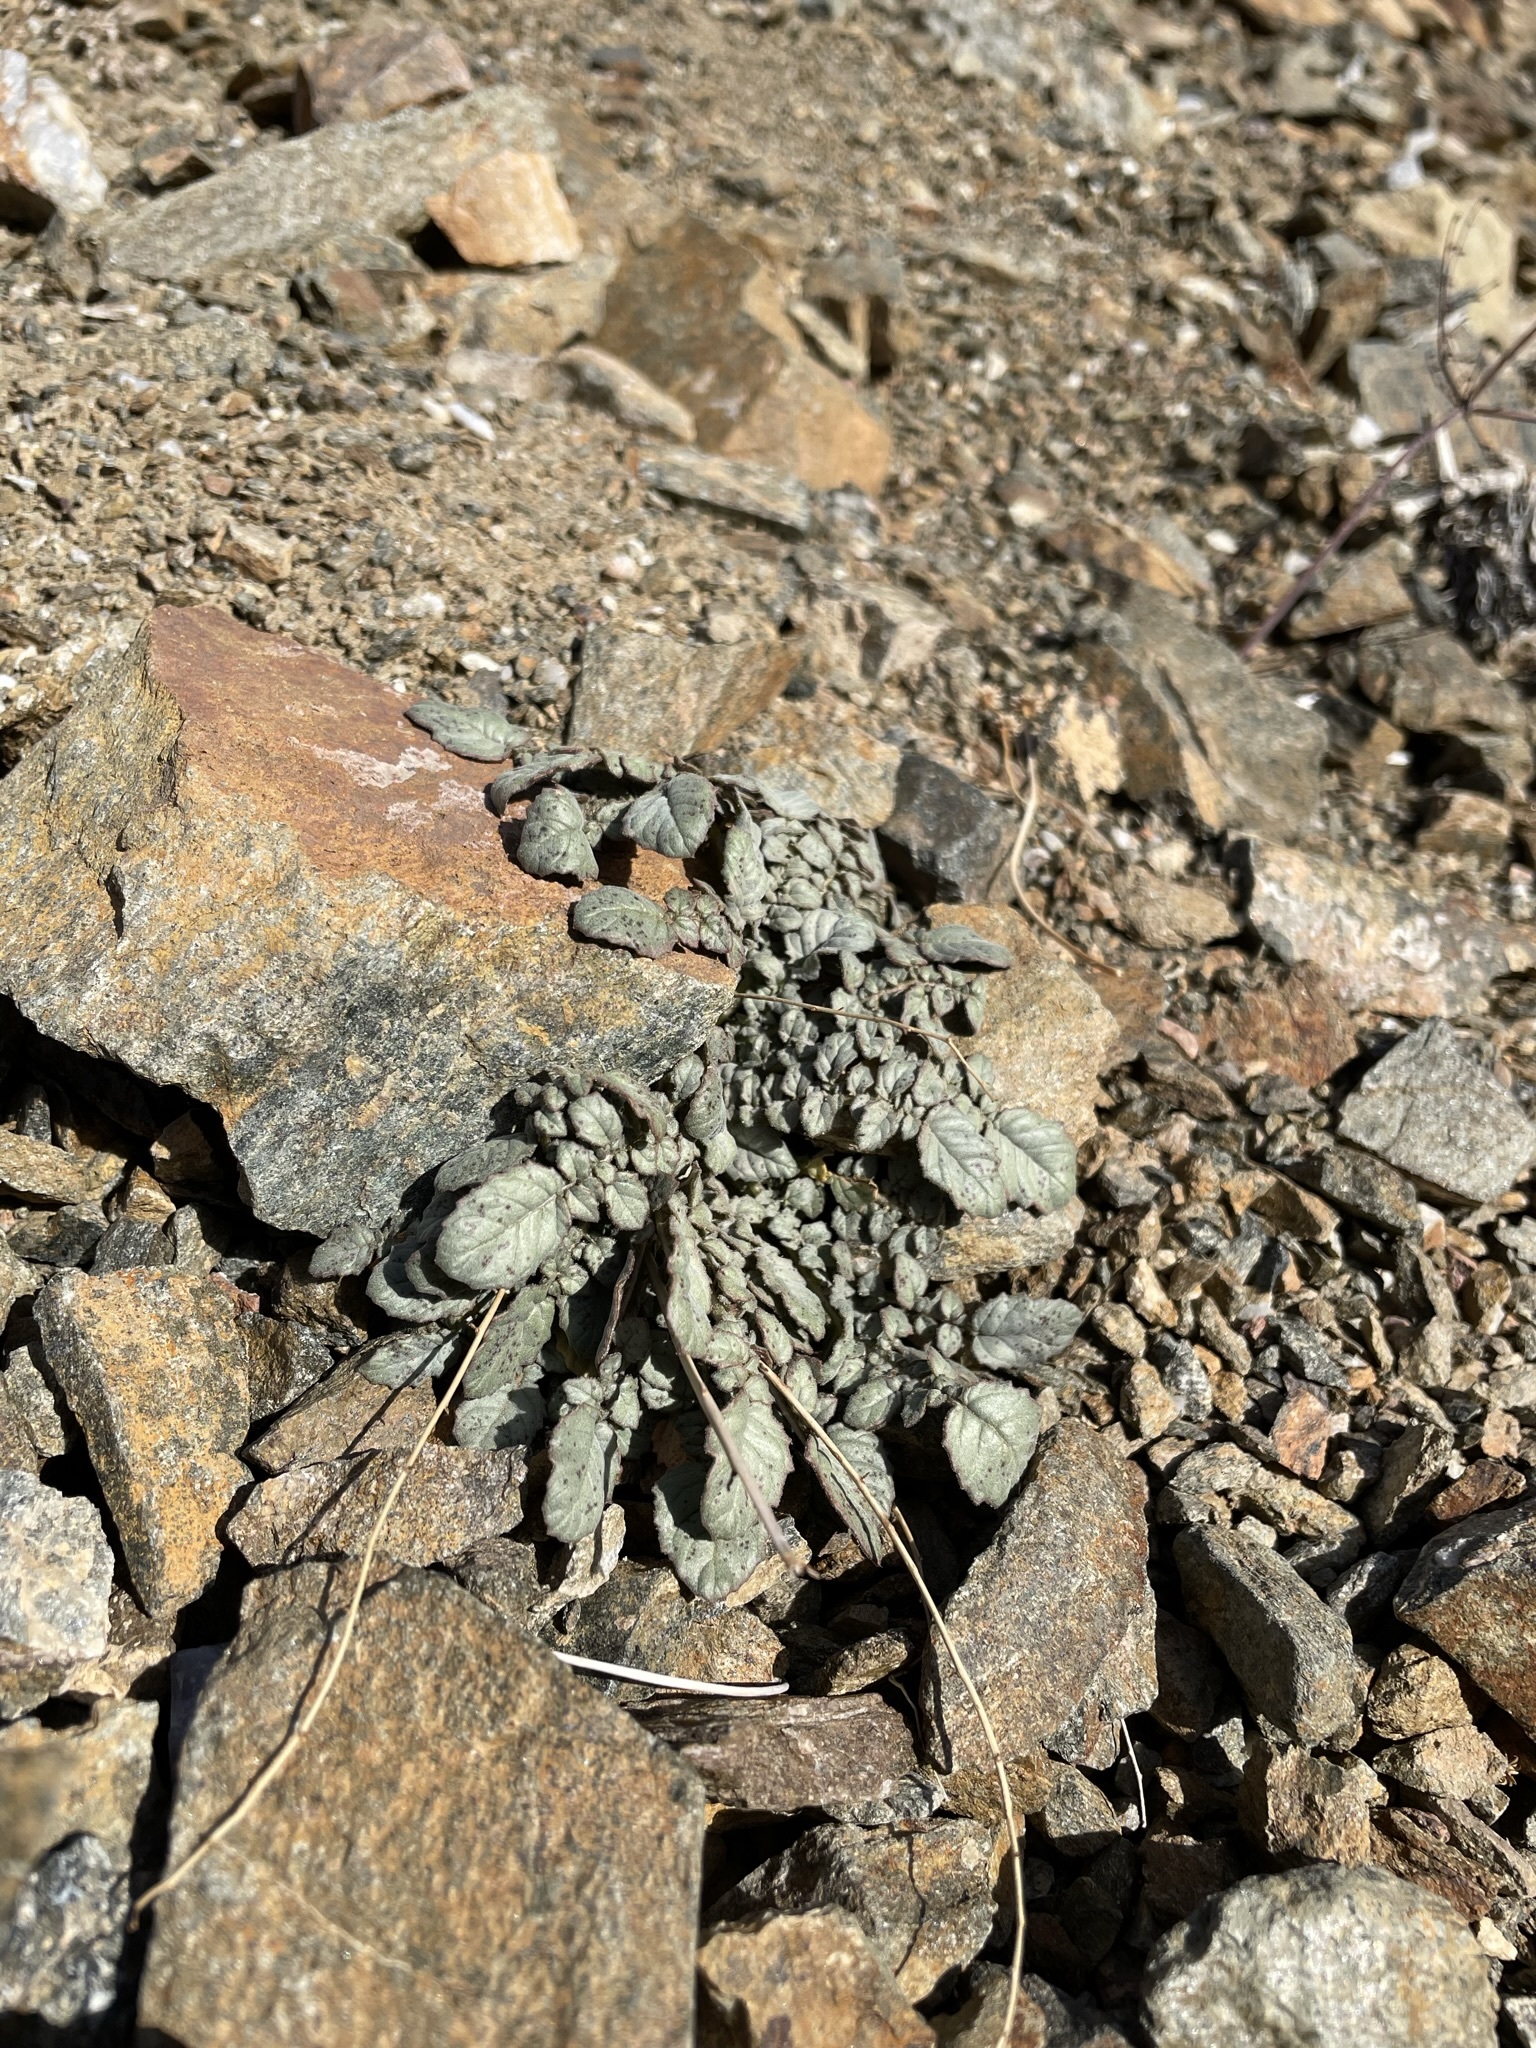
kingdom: Plantae
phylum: Tracheophyta
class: Magnoliopsida
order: Myrtales
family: Onagraceae
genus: Chylismia
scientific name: Chylismia walkeri
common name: Walker's suncup
